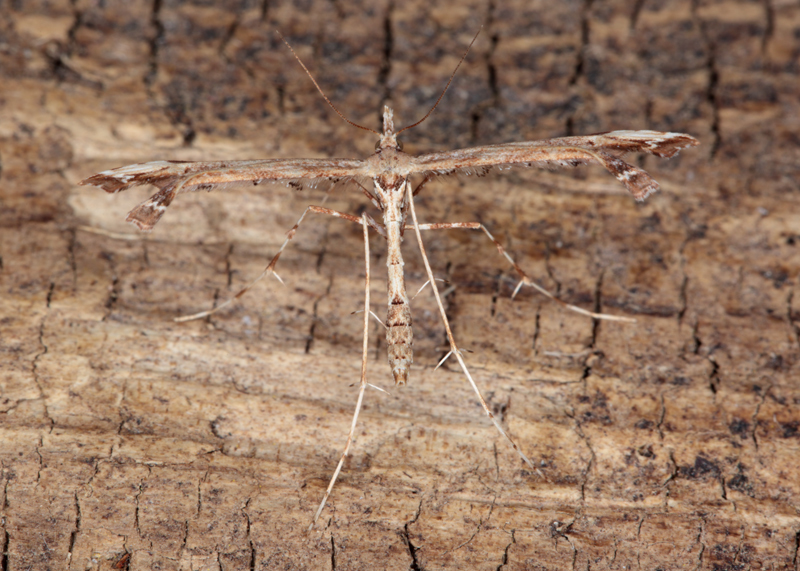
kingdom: Animalia
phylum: Arthropoda
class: Insecta
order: Lepidoptera
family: Pterophoridae
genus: Amblyptilia
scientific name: Amblyptilia aeolodes
